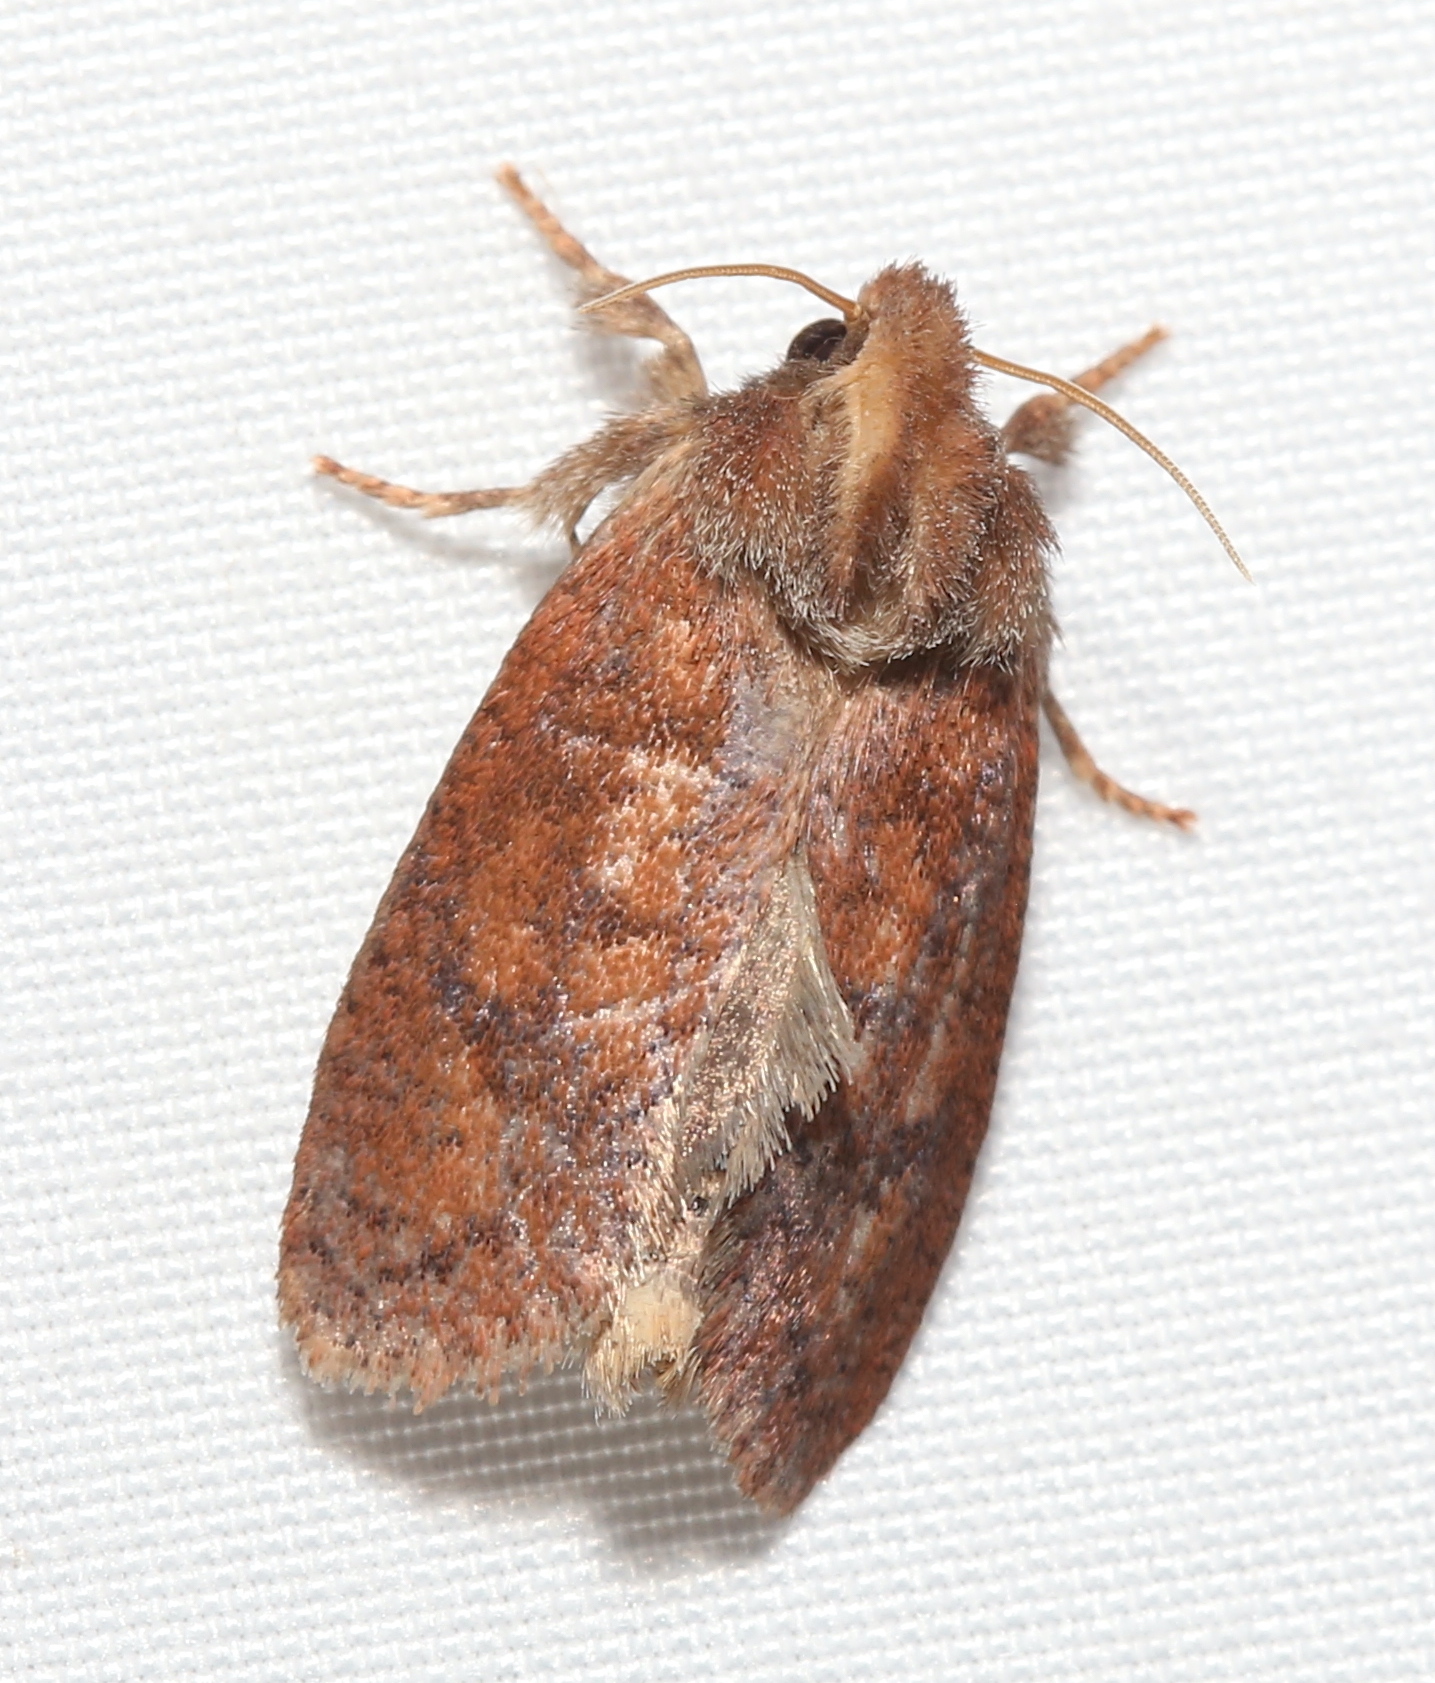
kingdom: Animalia
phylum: Arthropoda
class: Insecta
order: Lepidoptera
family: Tineidae
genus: Acrolophus
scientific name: Acrolophus plumifrontella
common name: Eastern grass tubeworm moth
